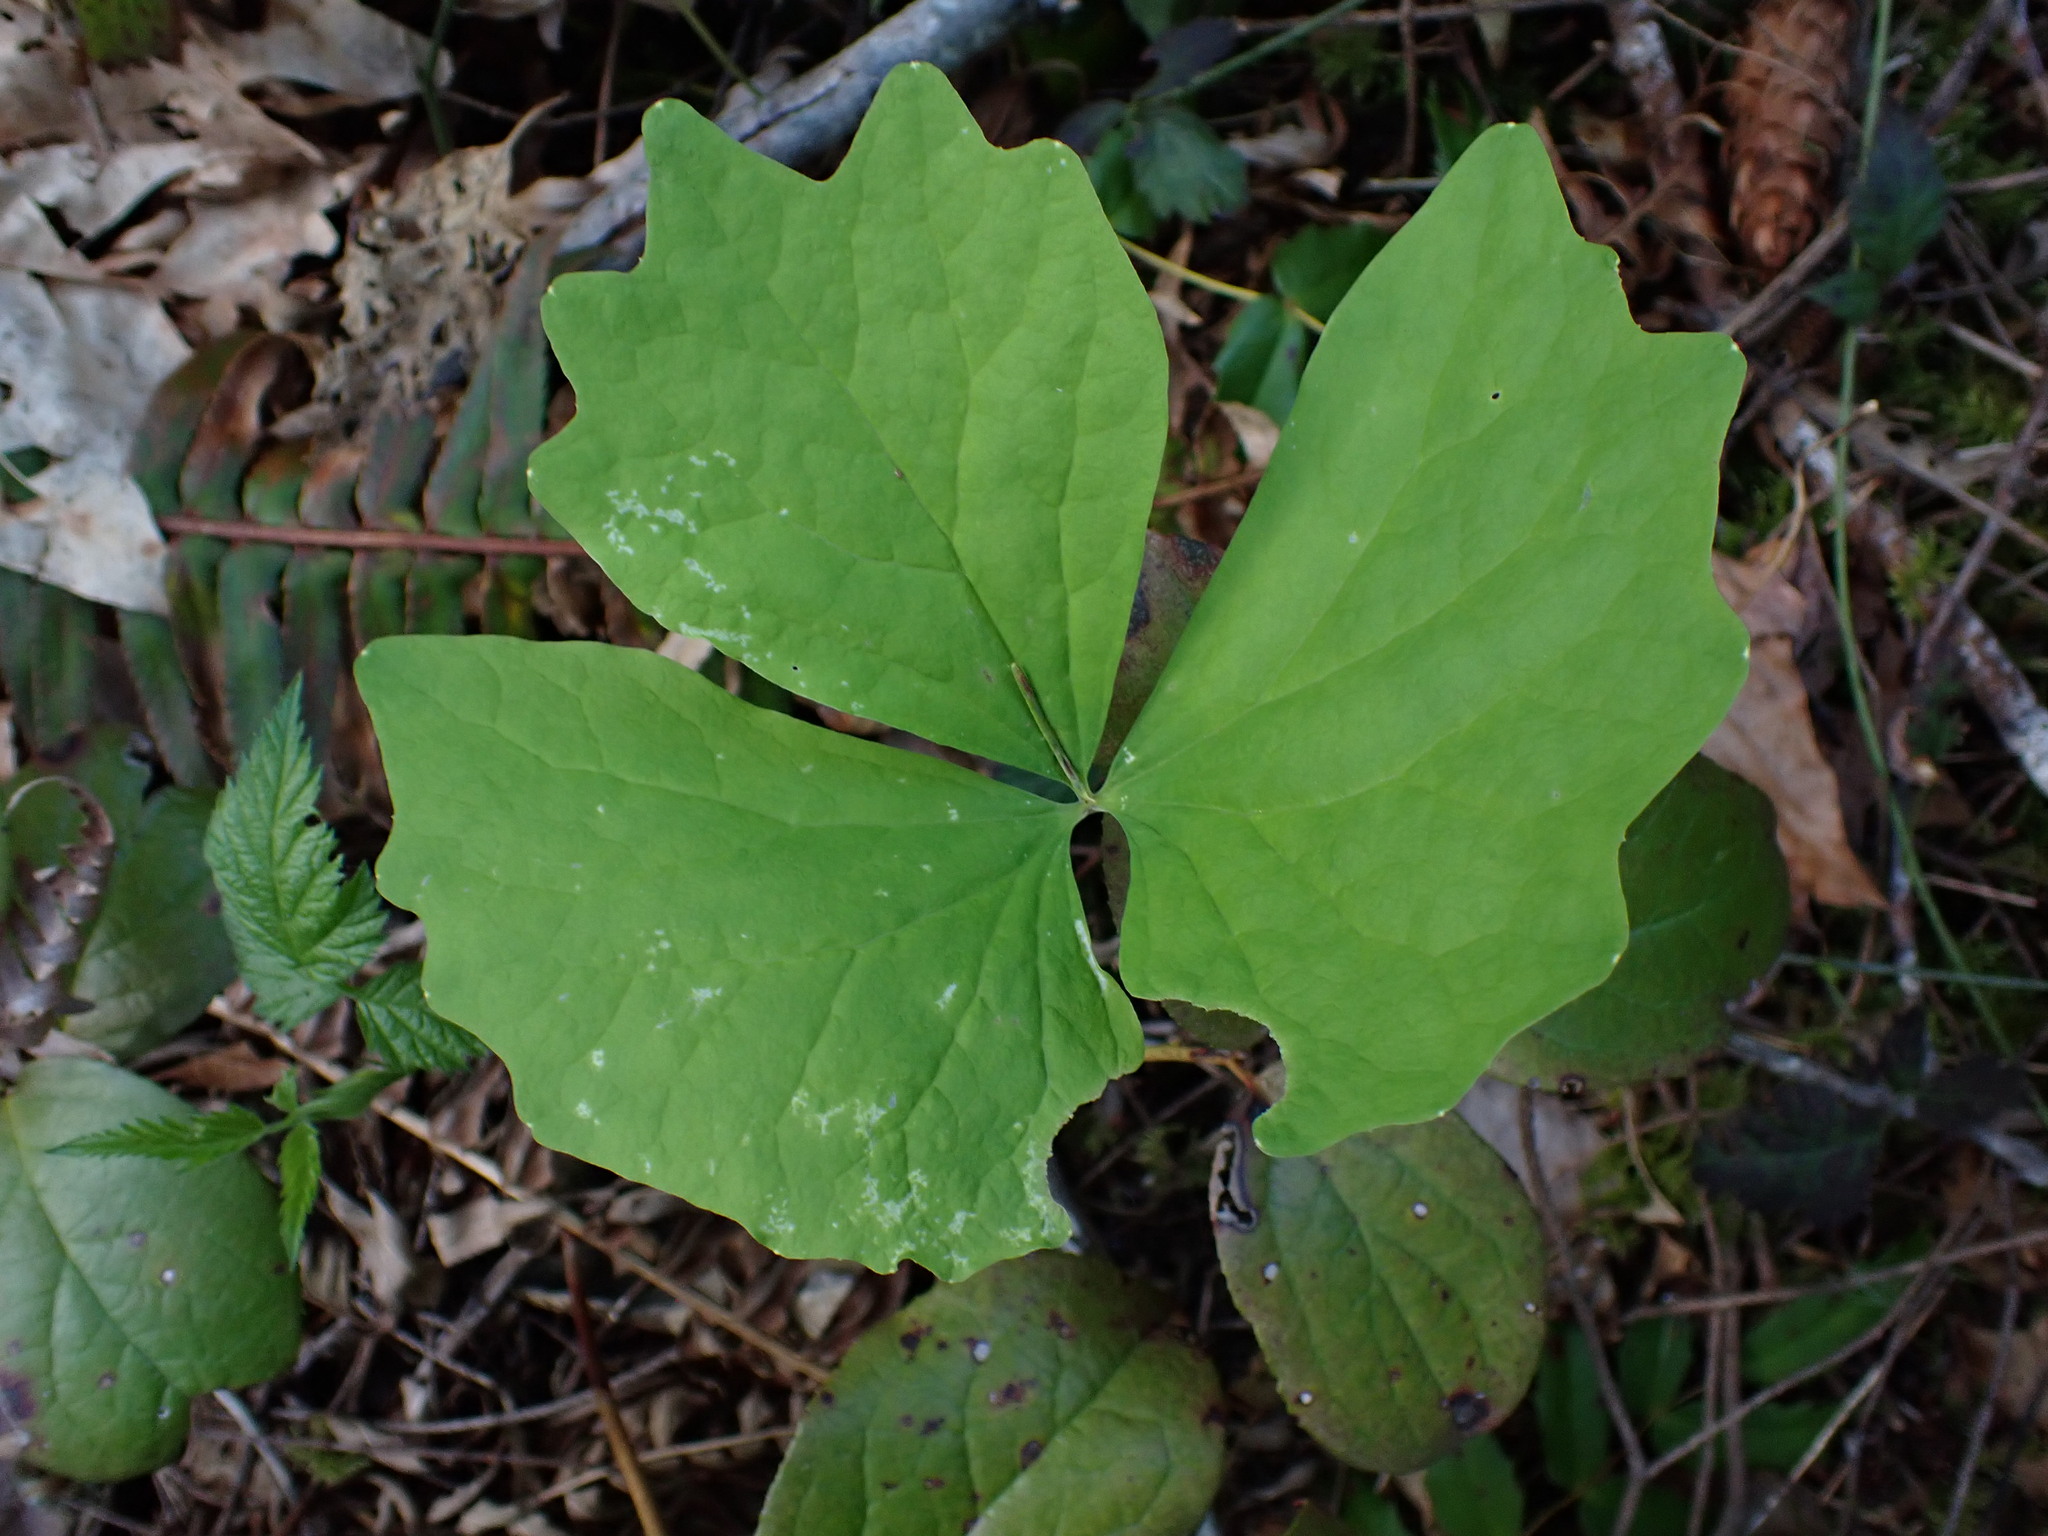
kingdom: Plantae
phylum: Tracheophyta
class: Magnoliopsida
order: Ranunculales
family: Berberidaceae
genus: Achlys
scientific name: Achlys triphylla
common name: Vanilla-leaf
